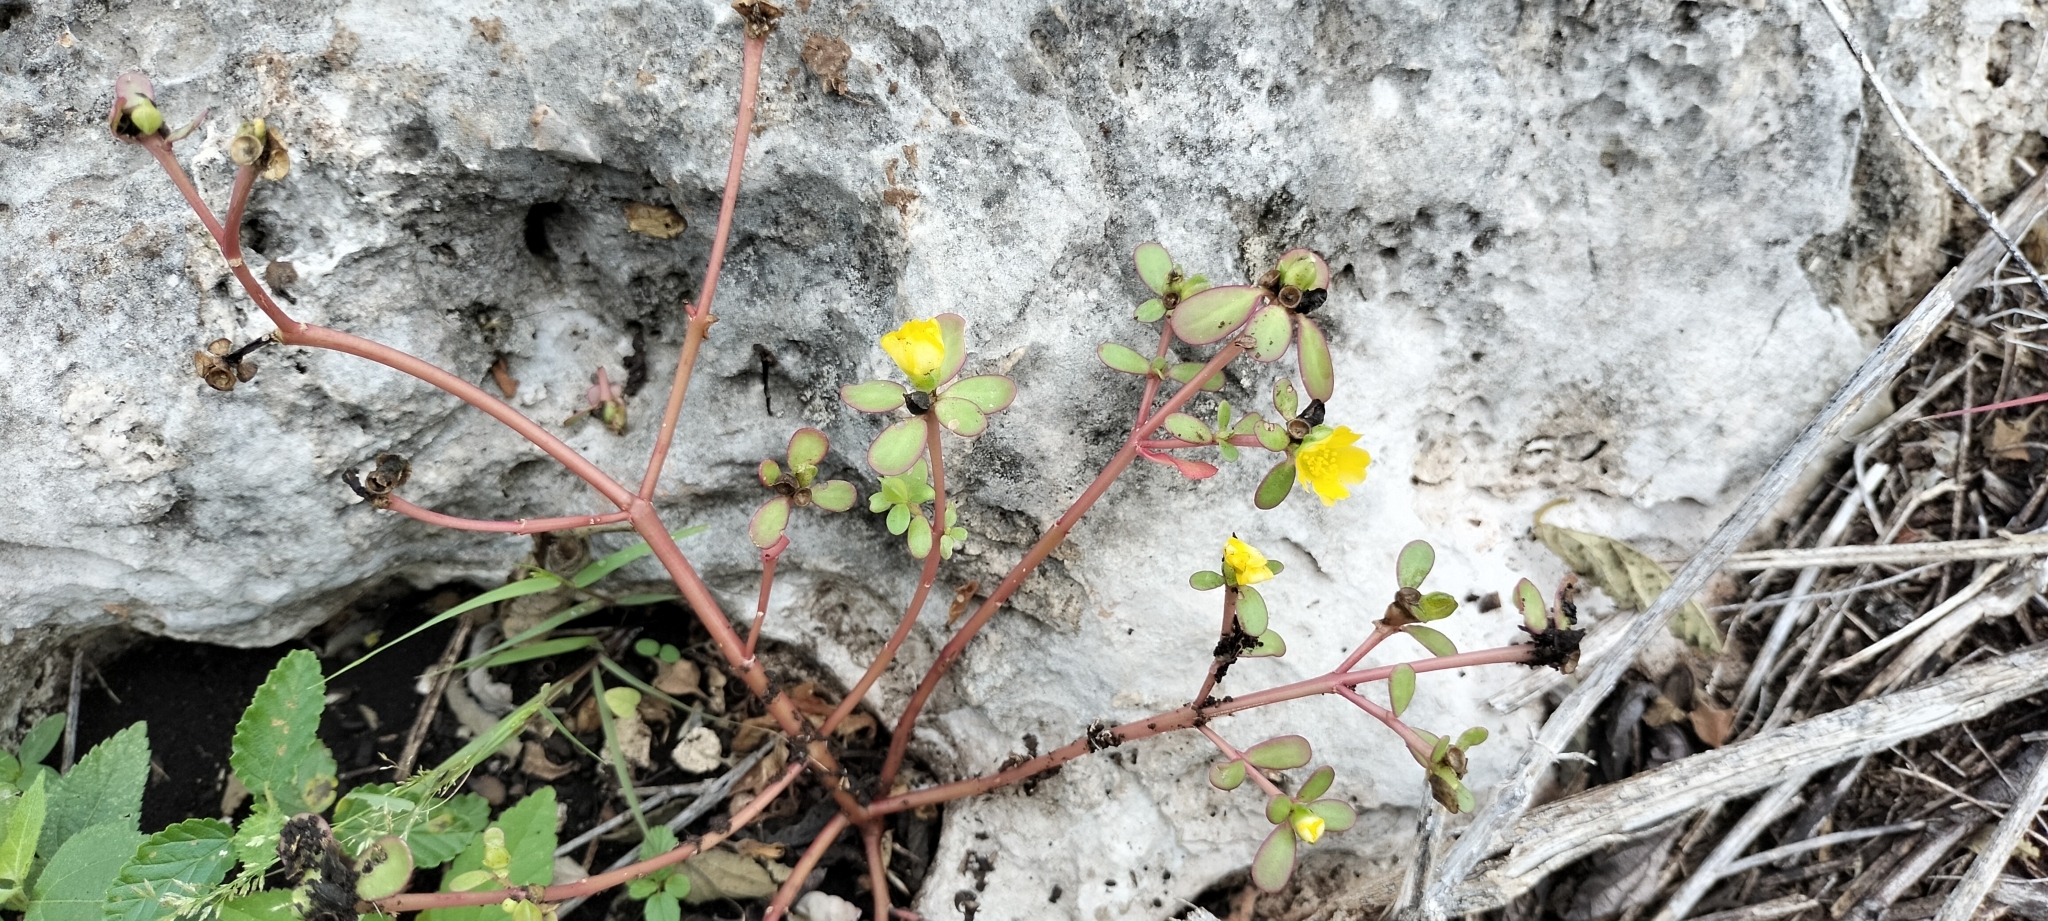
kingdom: Plantae
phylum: Tracheophyta
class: Magnoliopsida
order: Caryophyllales
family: Portulacaceae
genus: Portulaca
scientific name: Portulaca oleracea
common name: Common purslane
